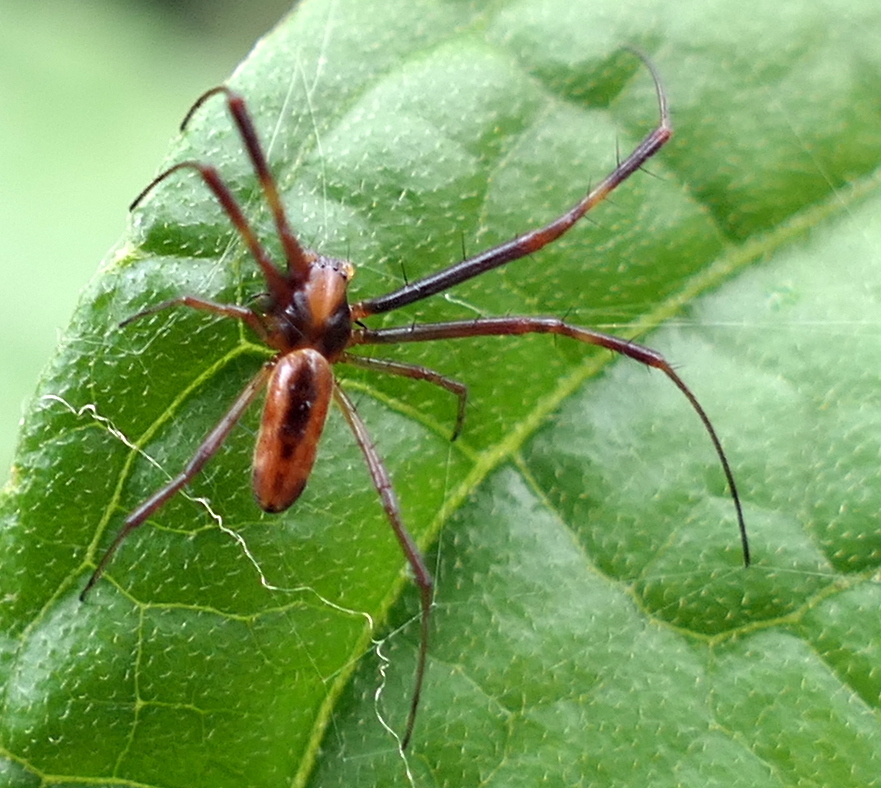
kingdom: Animalia
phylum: Arthropoda
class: Arachnida
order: Araneae
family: Araneidae
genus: Trichonephila
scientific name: Trichonephila clavipes
